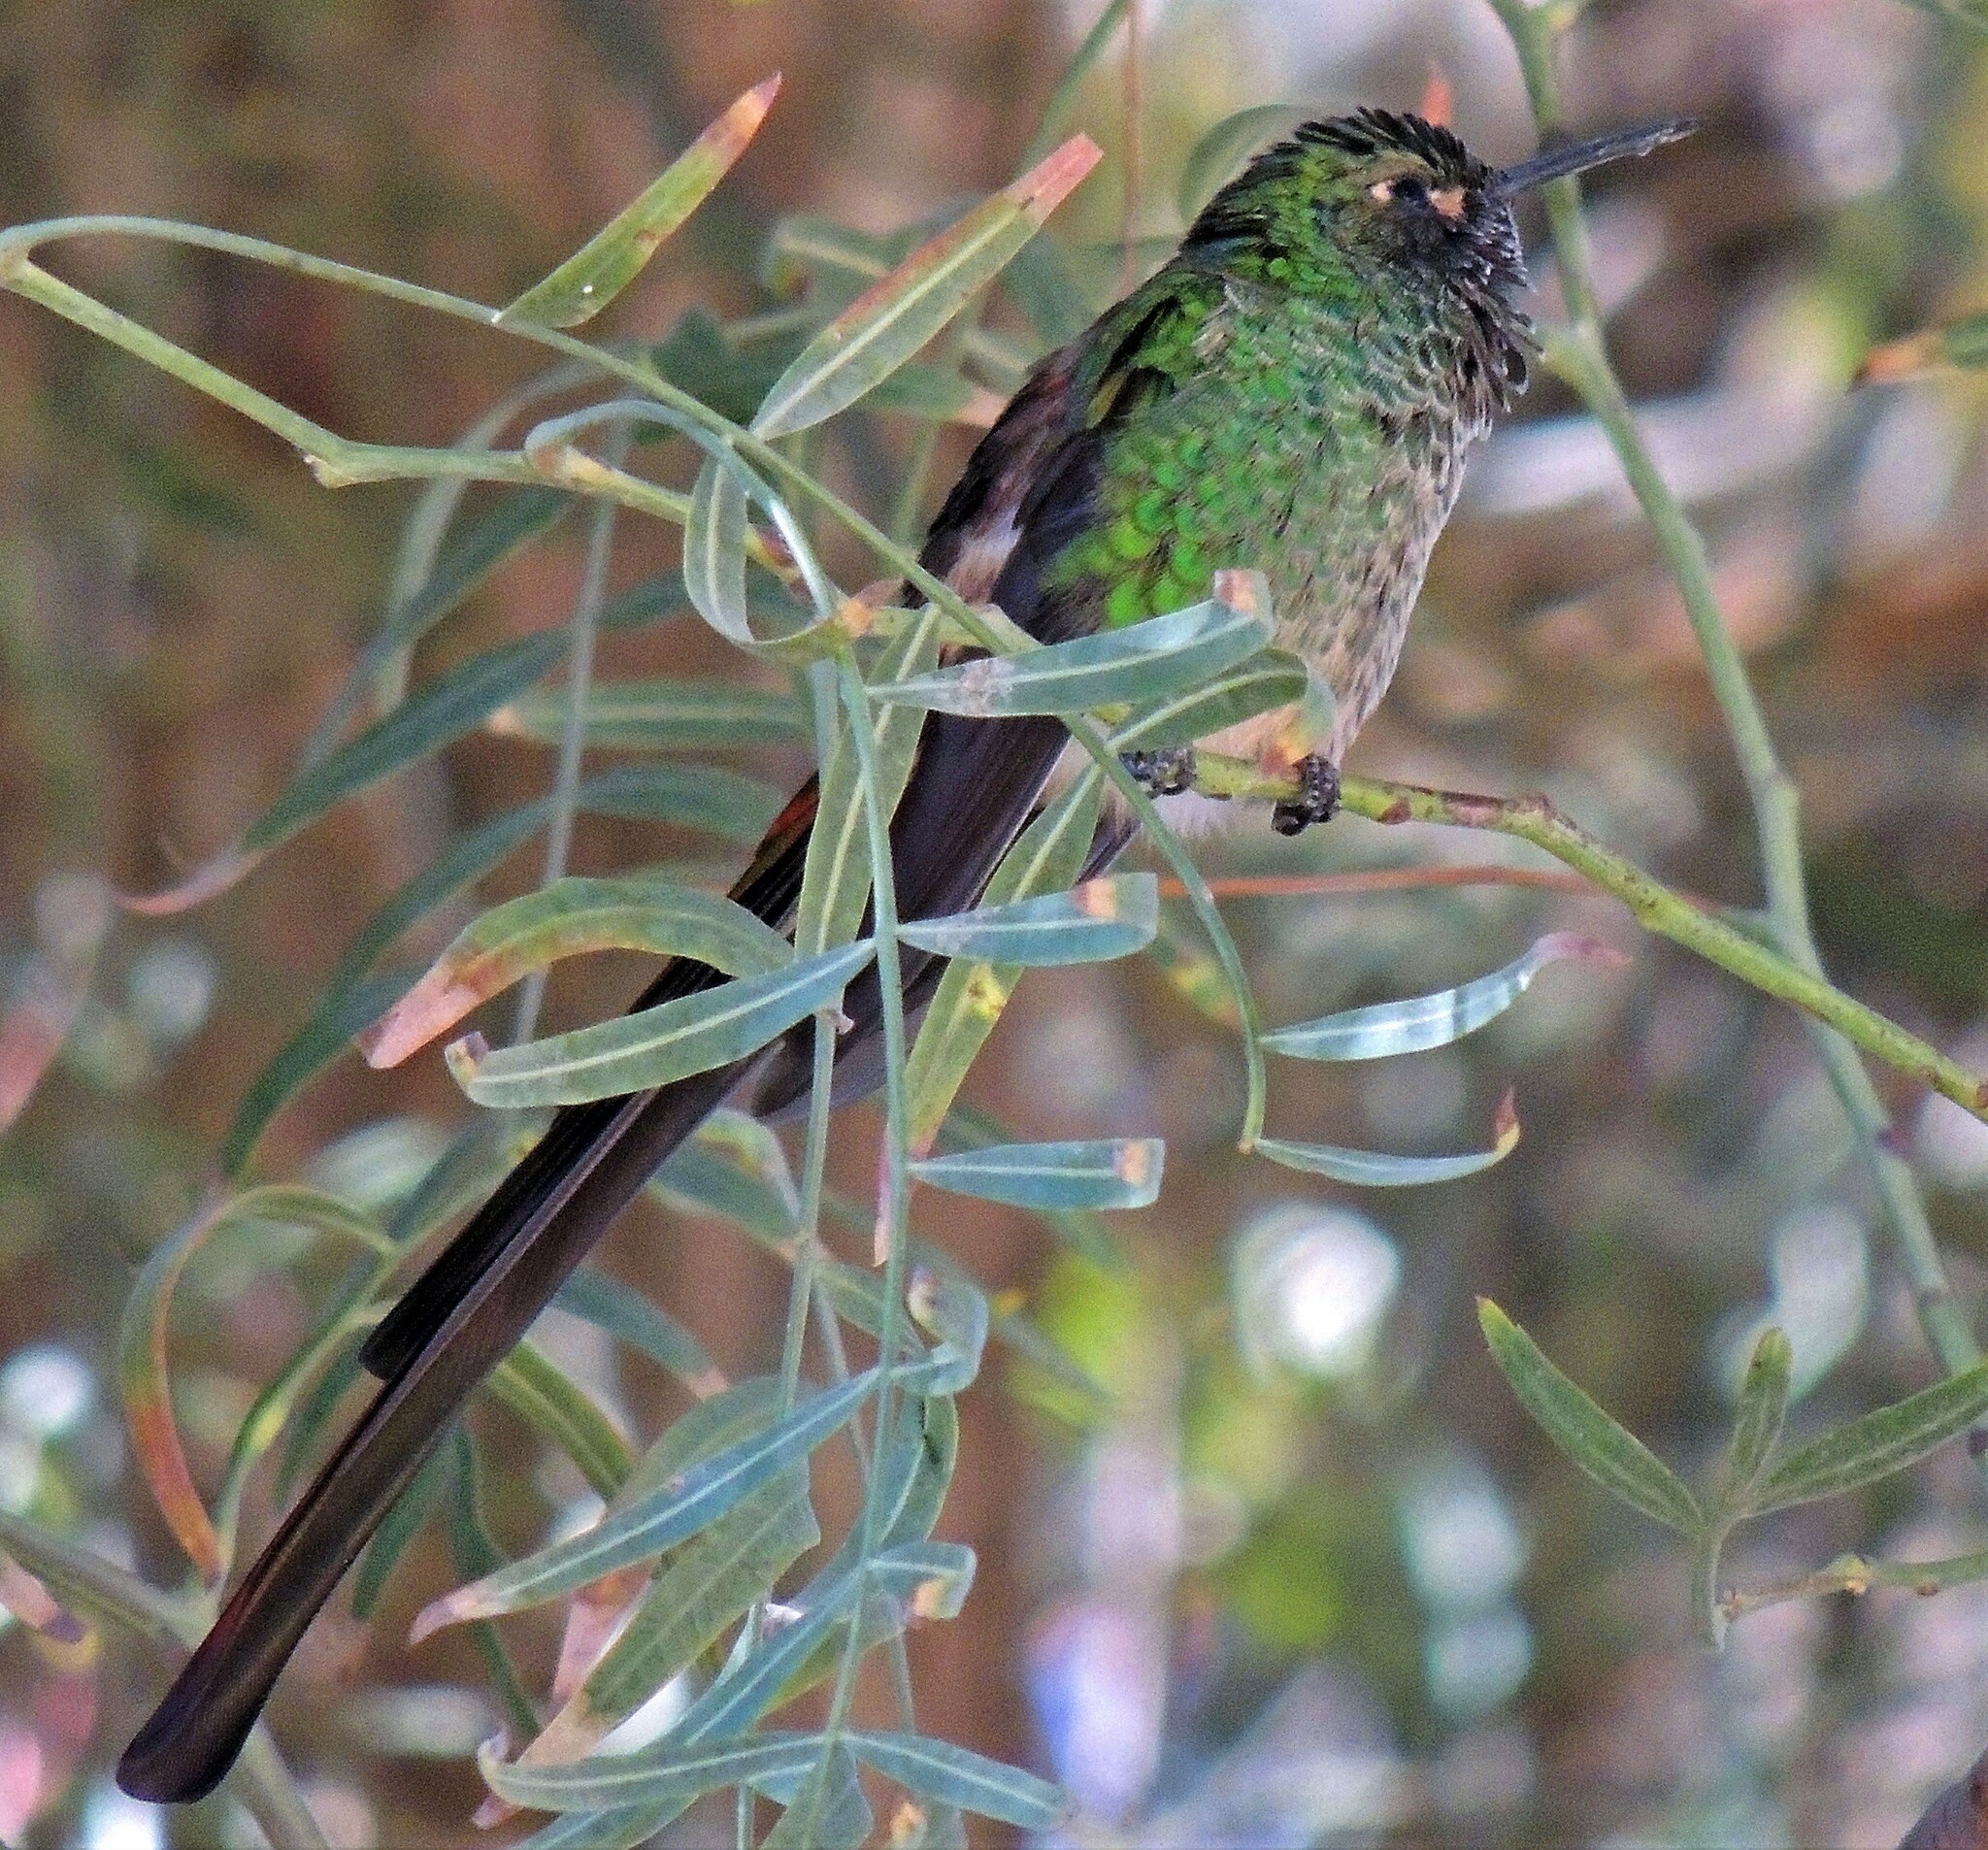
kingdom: Animalia
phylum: Chordata
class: Aves
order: Apodiformes
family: Trochilidae
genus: Sappho
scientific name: Sappho sparganurus
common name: Red-tailed comet
